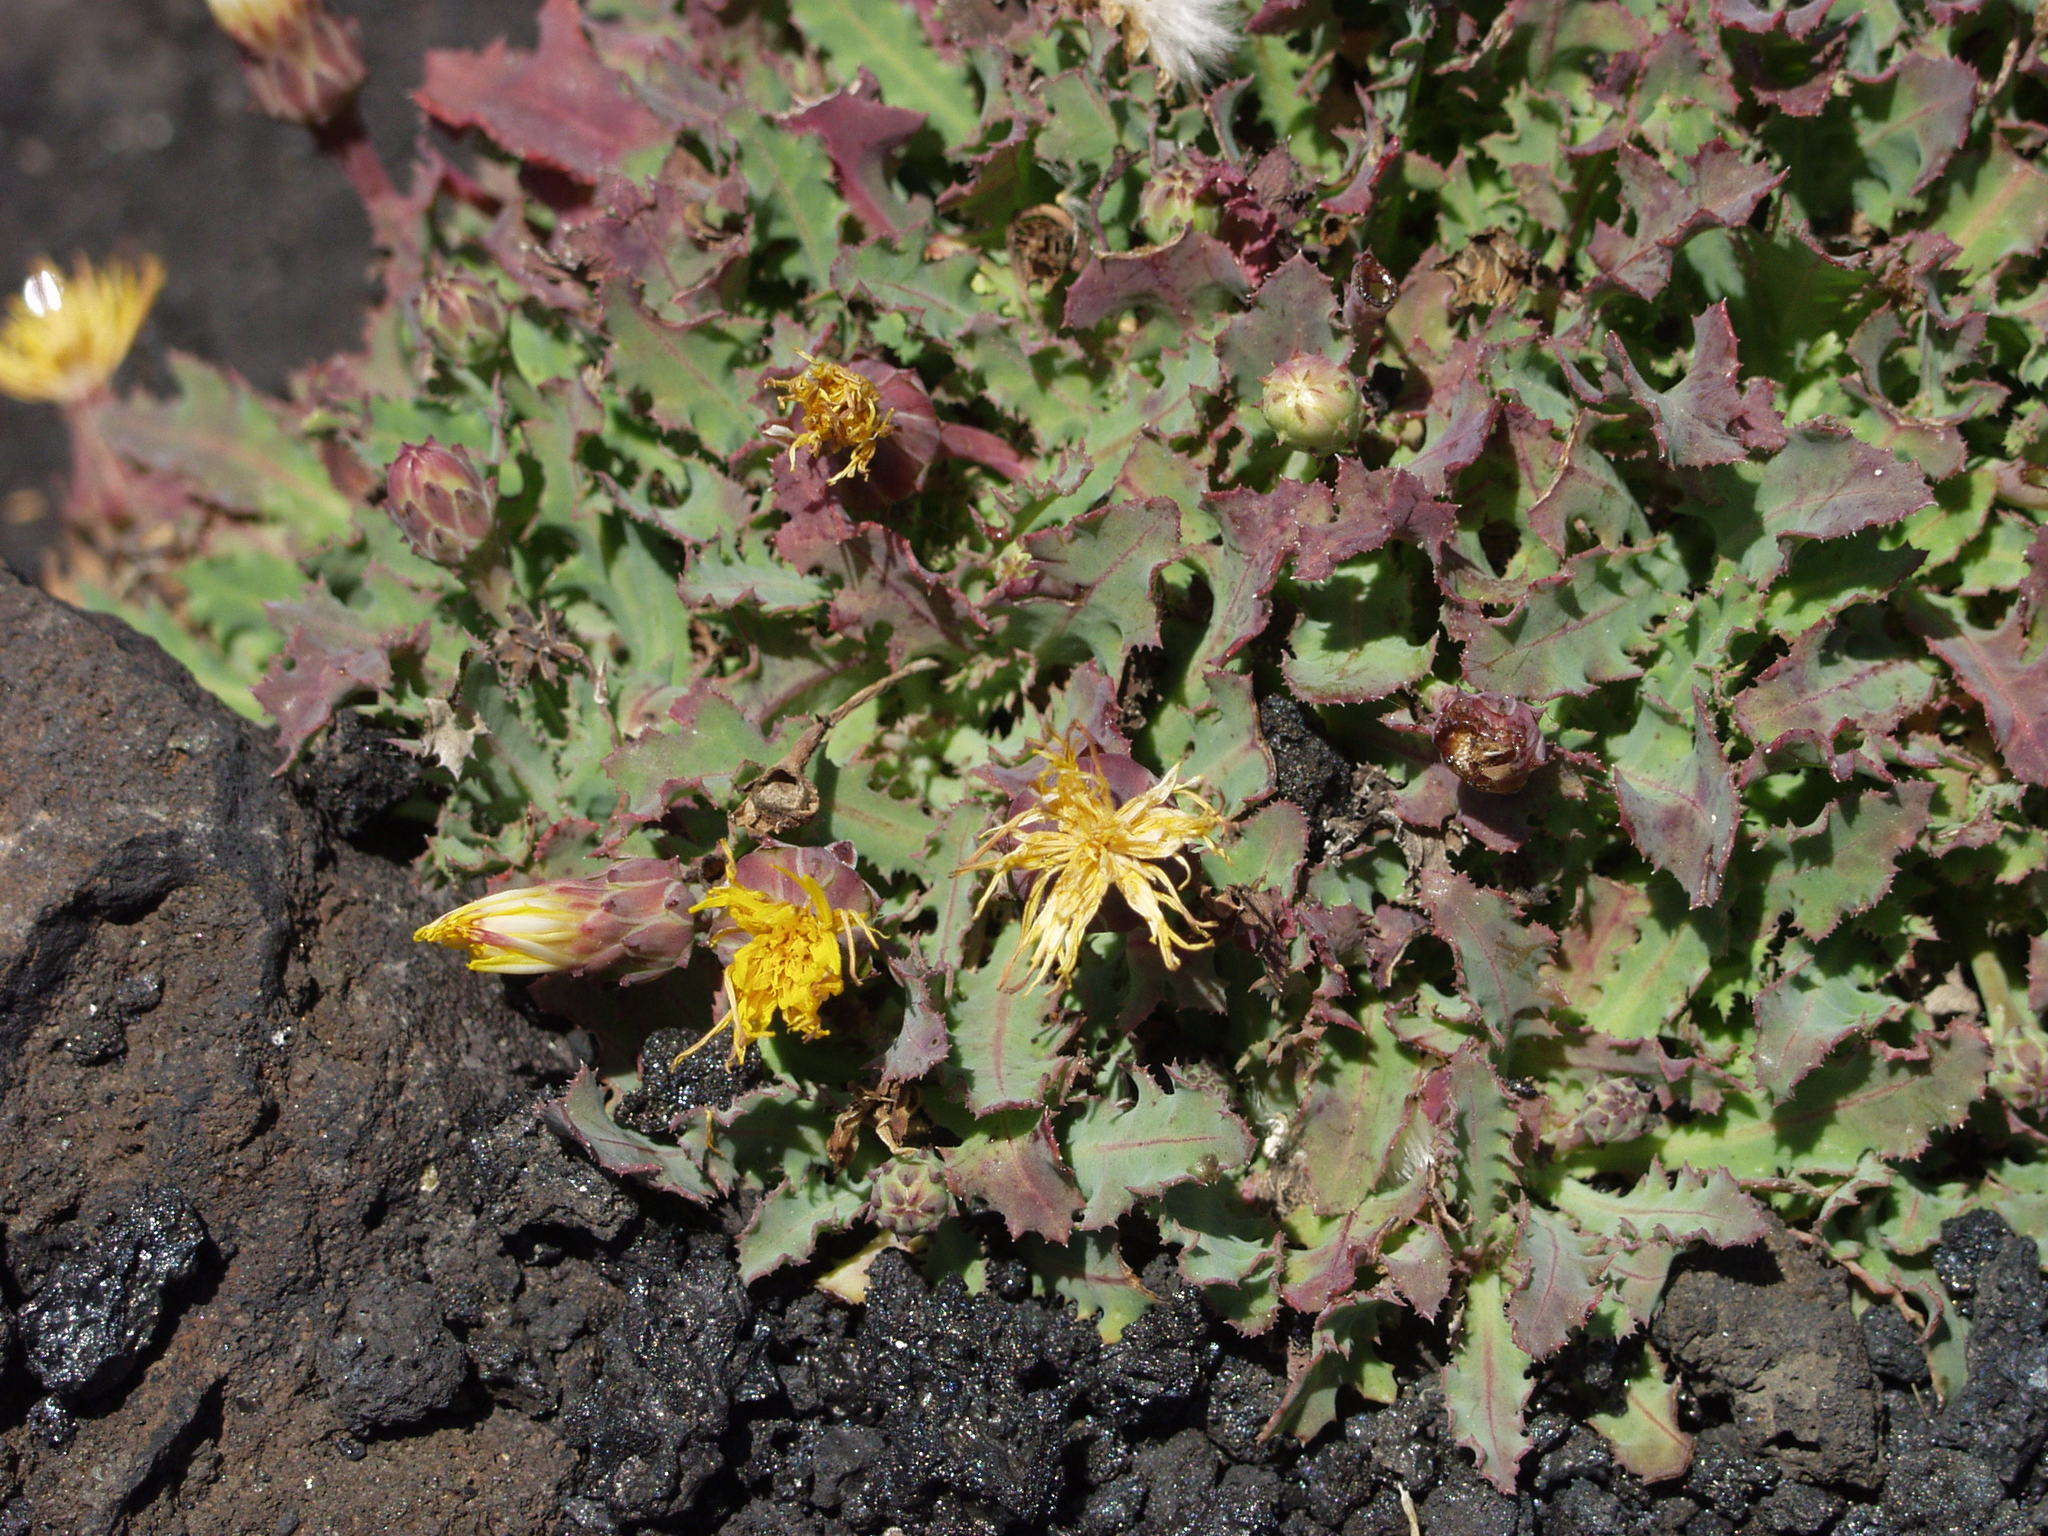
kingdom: Plantae
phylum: Tracheophyta
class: Magnoliopsida
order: Asterales
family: Asteraceae
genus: Reichardia
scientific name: Reichardia ligulata
